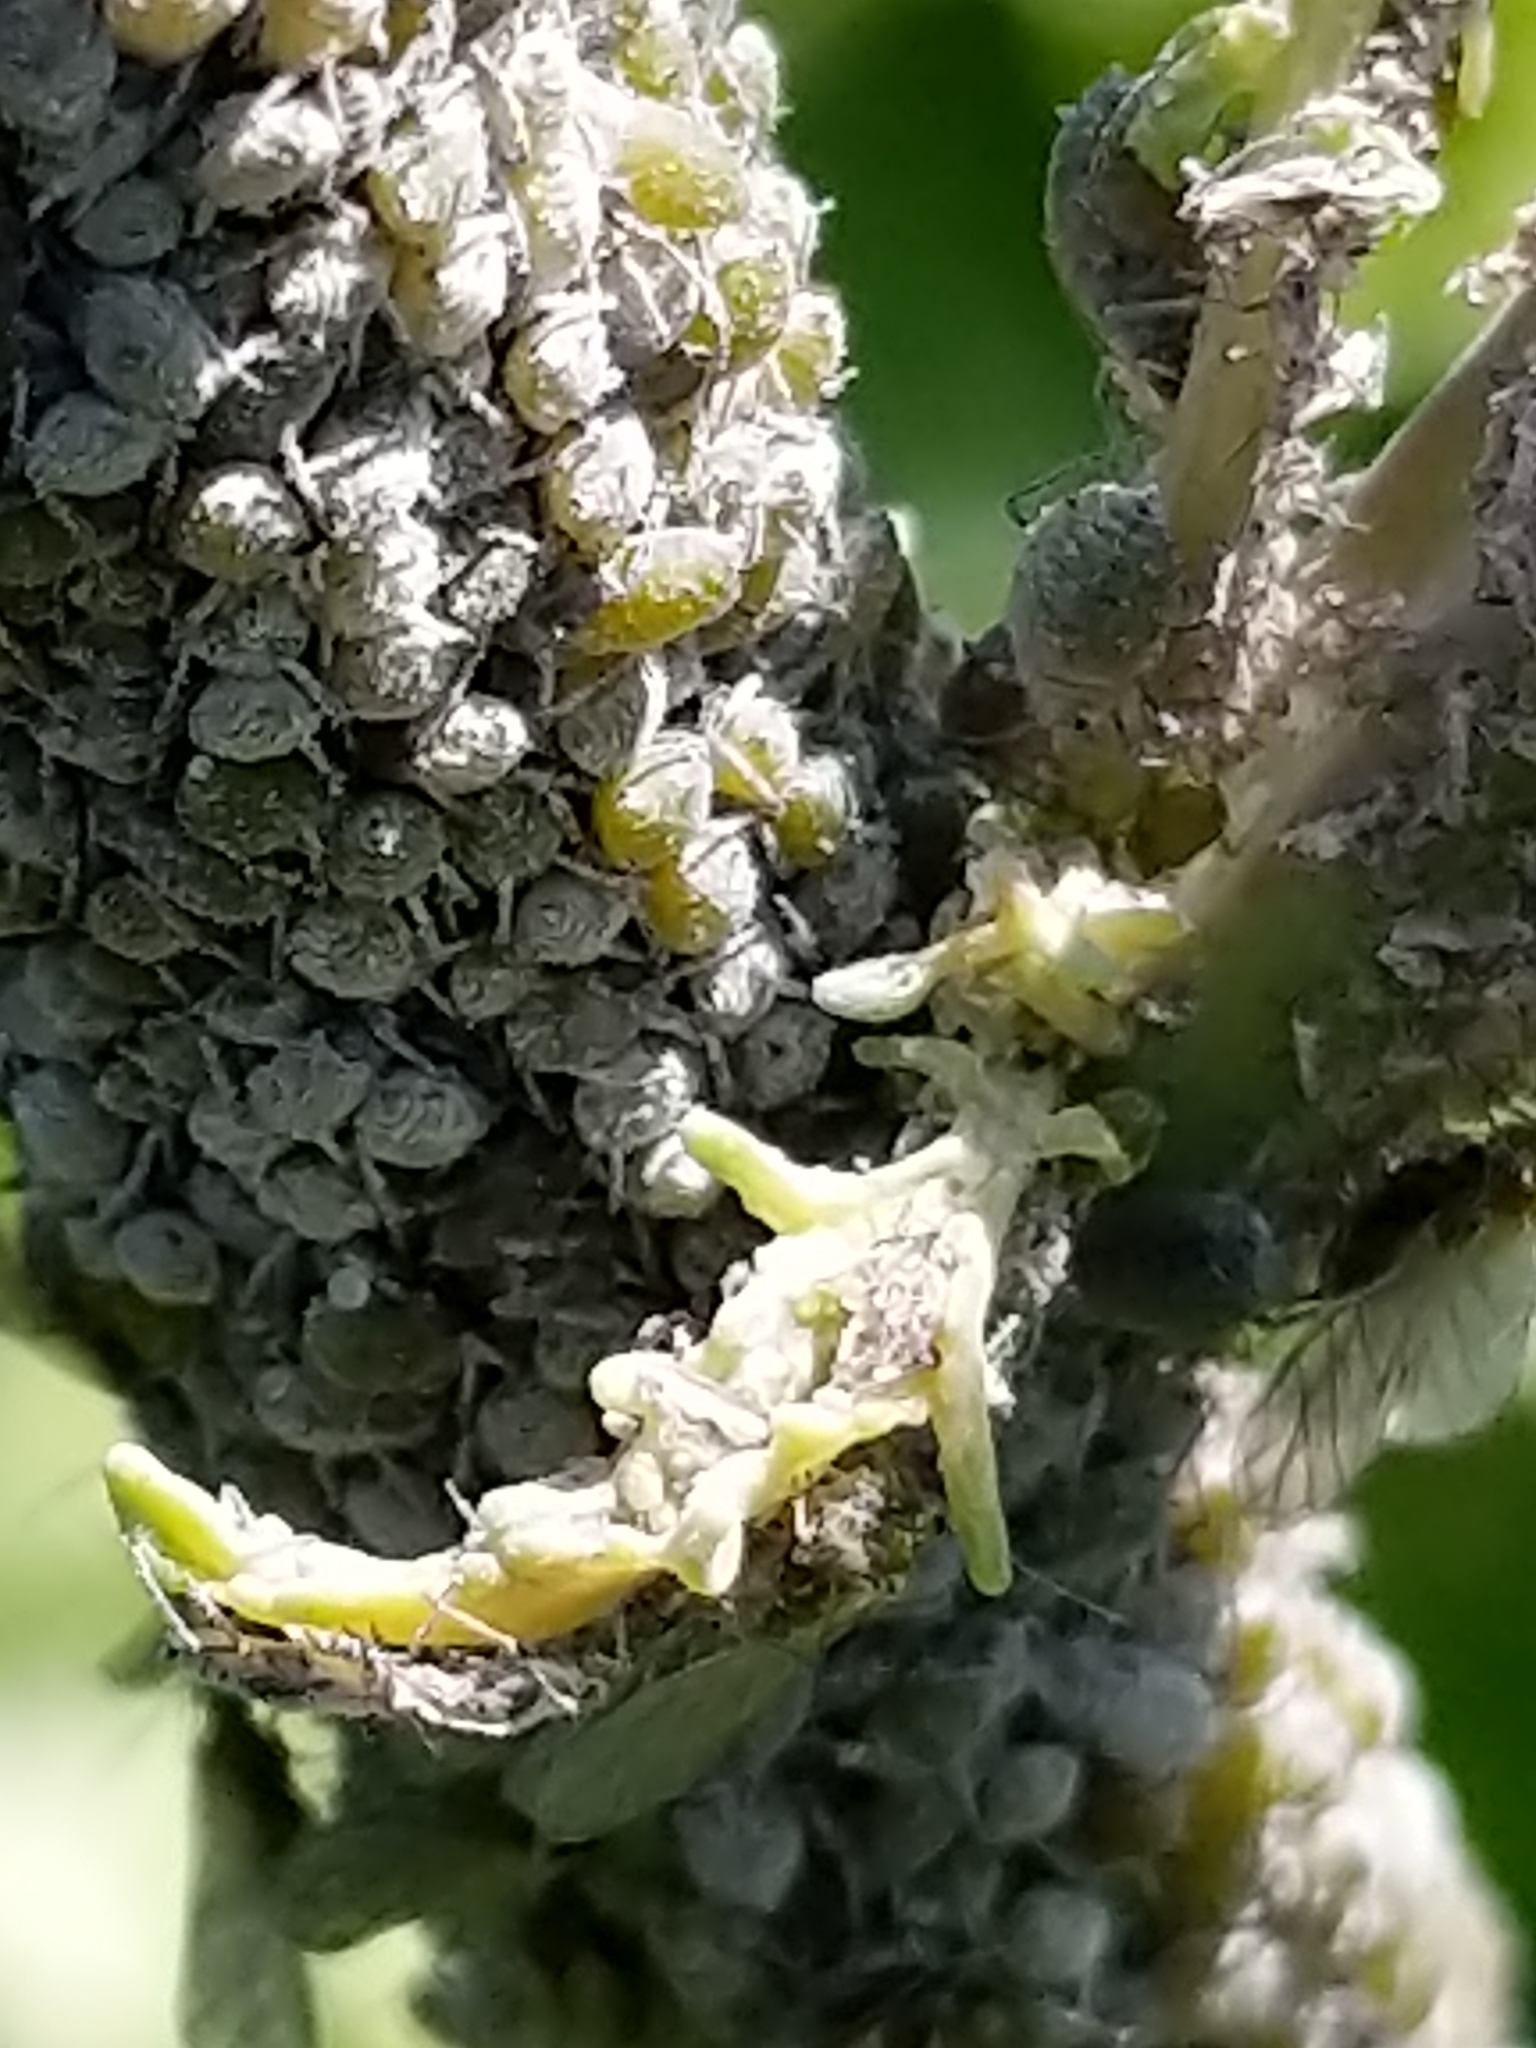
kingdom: Animalia
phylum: Arthropoda
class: Insecta
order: Hemiptera
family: Aphididae
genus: Brevicoryne
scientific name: Brevicoryne brassicae
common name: Cabbage aphid
